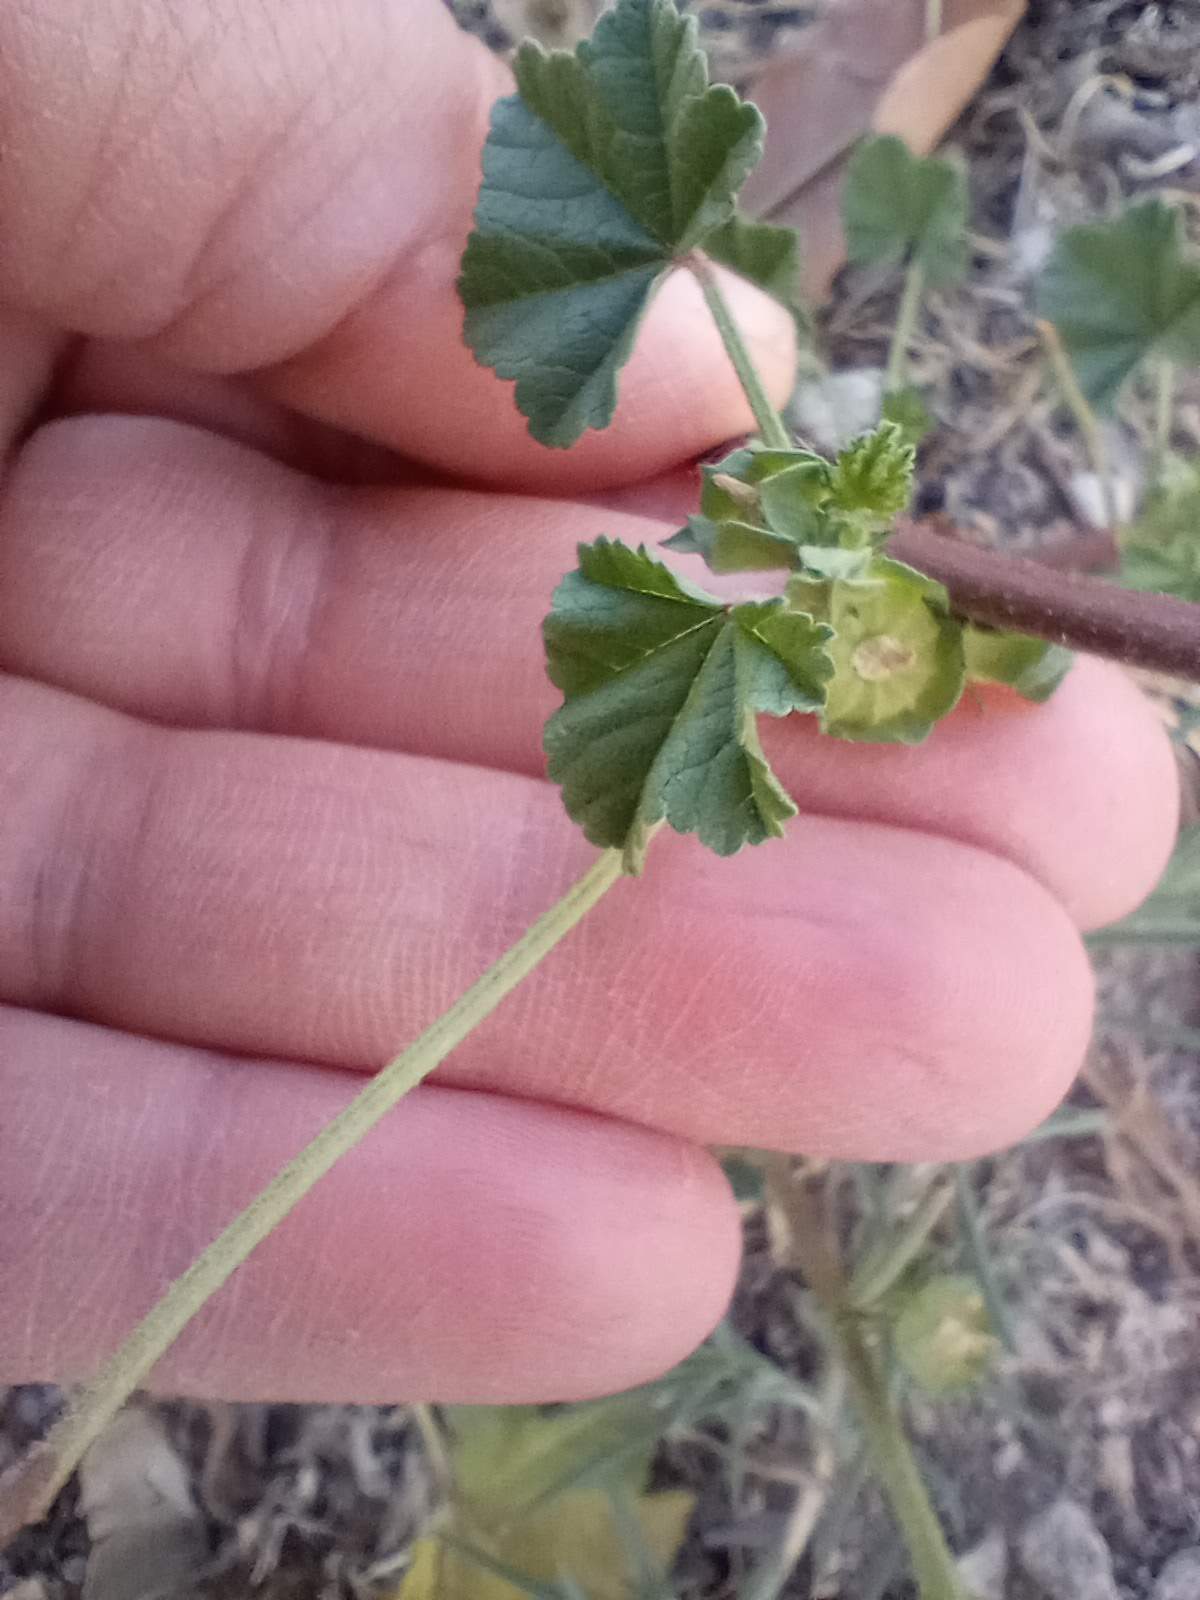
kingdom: Plantae
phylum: Tracheophyta
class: Magnoliopsida
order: Malvales
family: Malvaceae
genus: Malva
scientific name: Malva parviflora
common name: Least mallow
